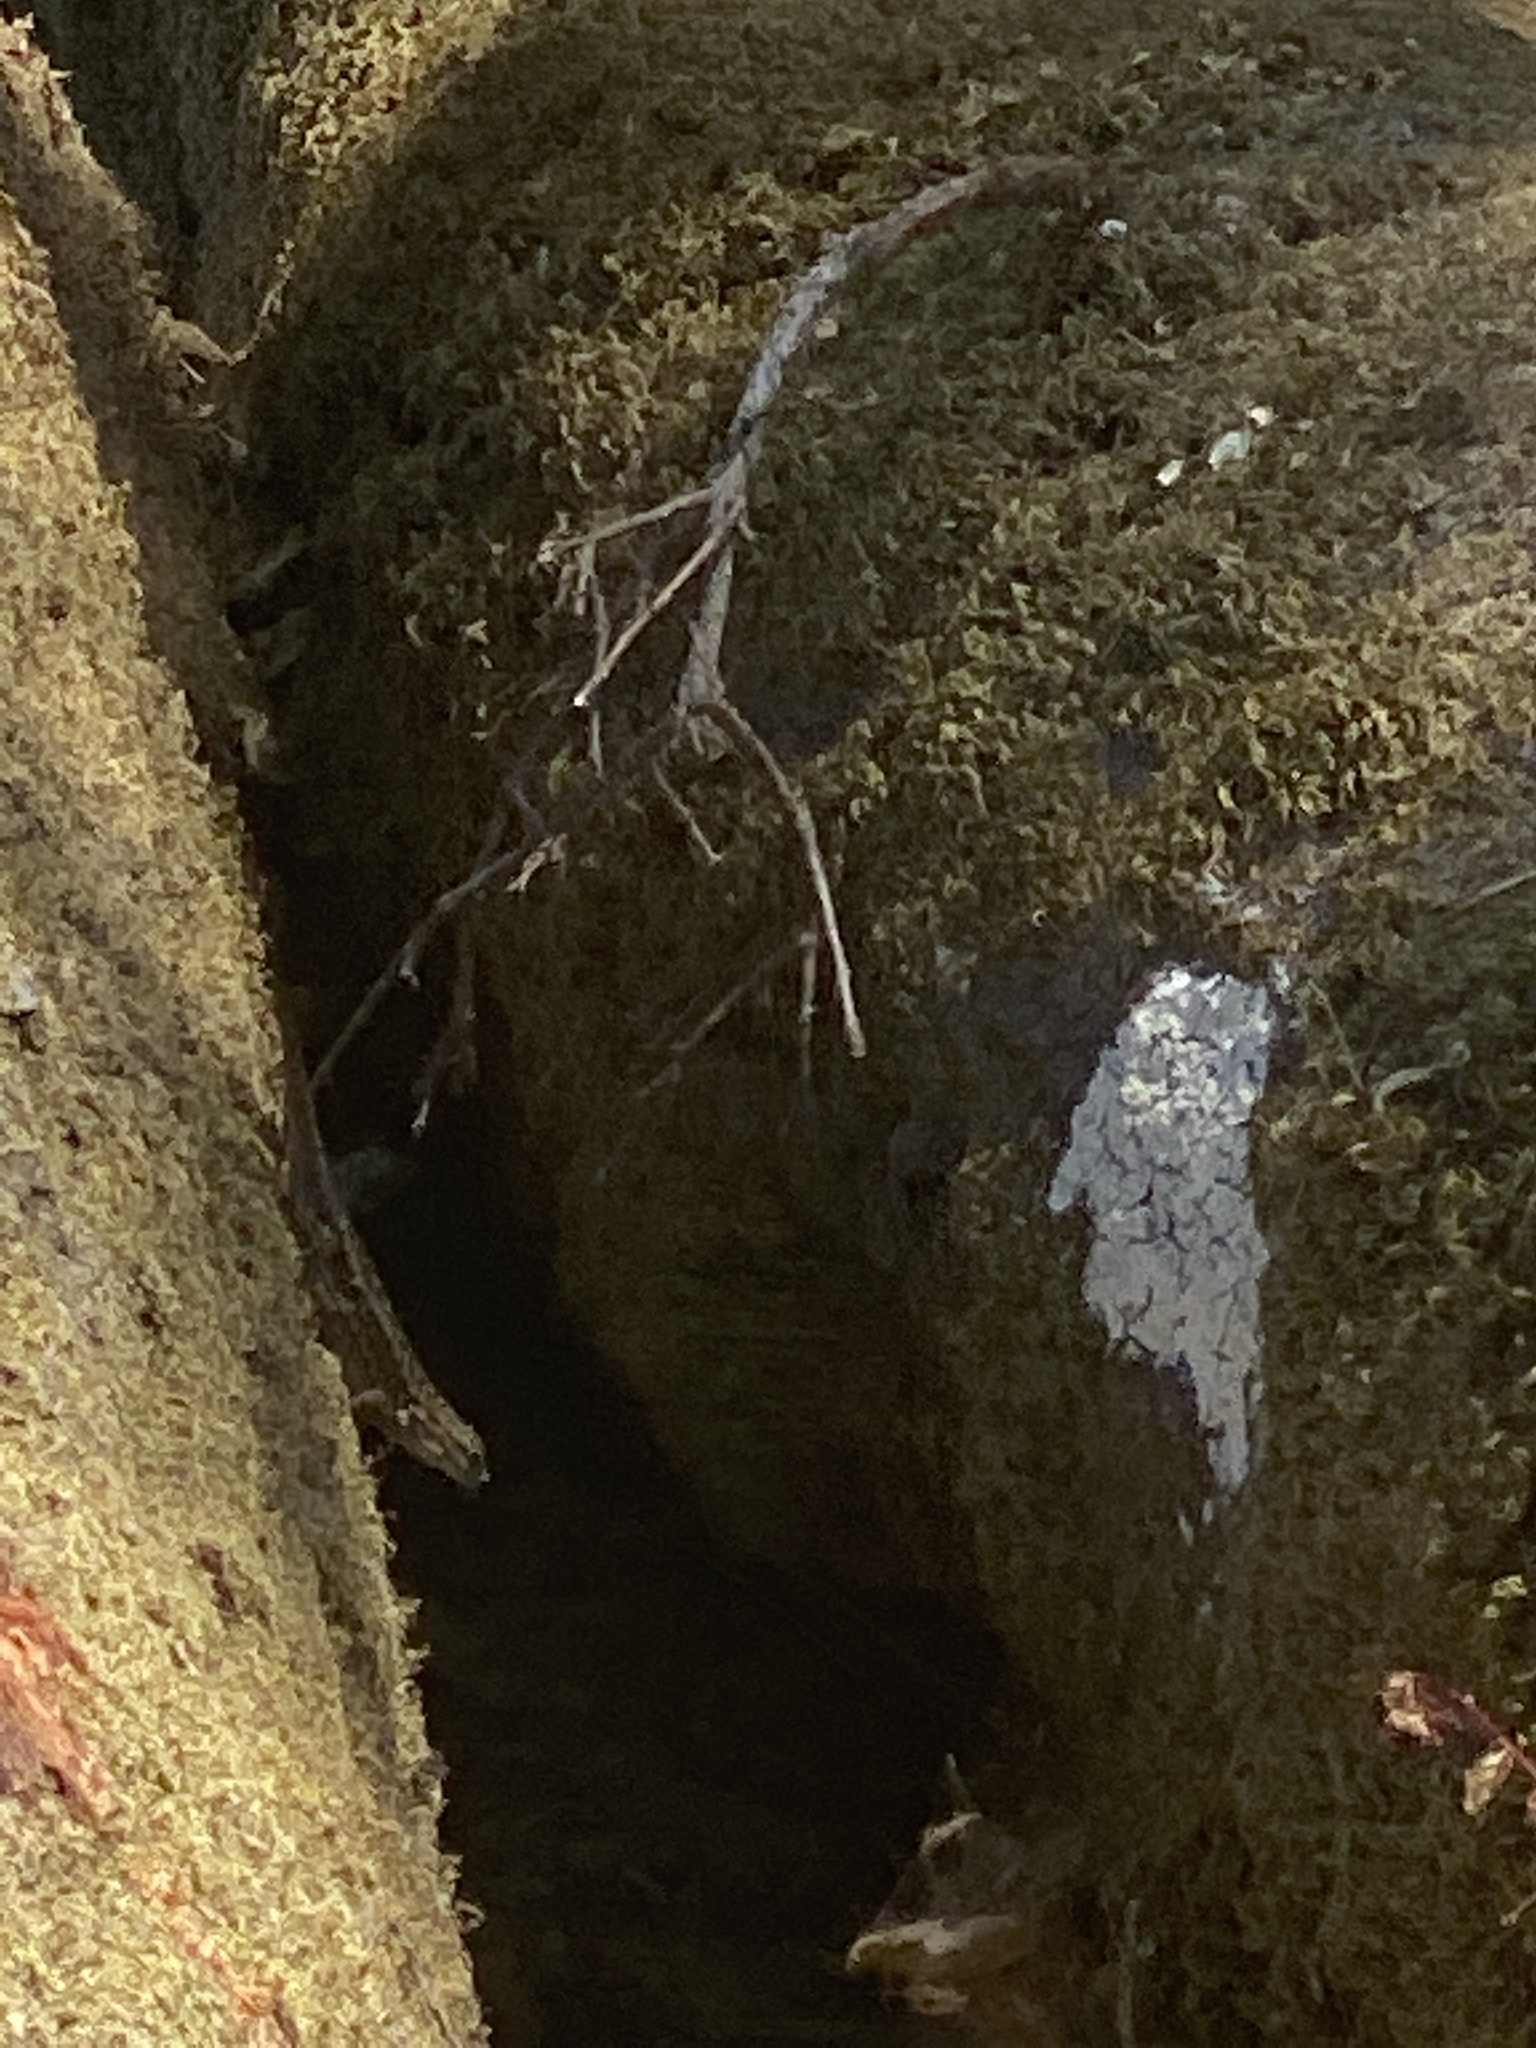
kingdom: Animalia
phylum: Chordata
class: Squamata
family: Phrynosomatidae
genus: Sceloporus
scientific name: Sceloporus occidentalis
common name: Western fence lizard
